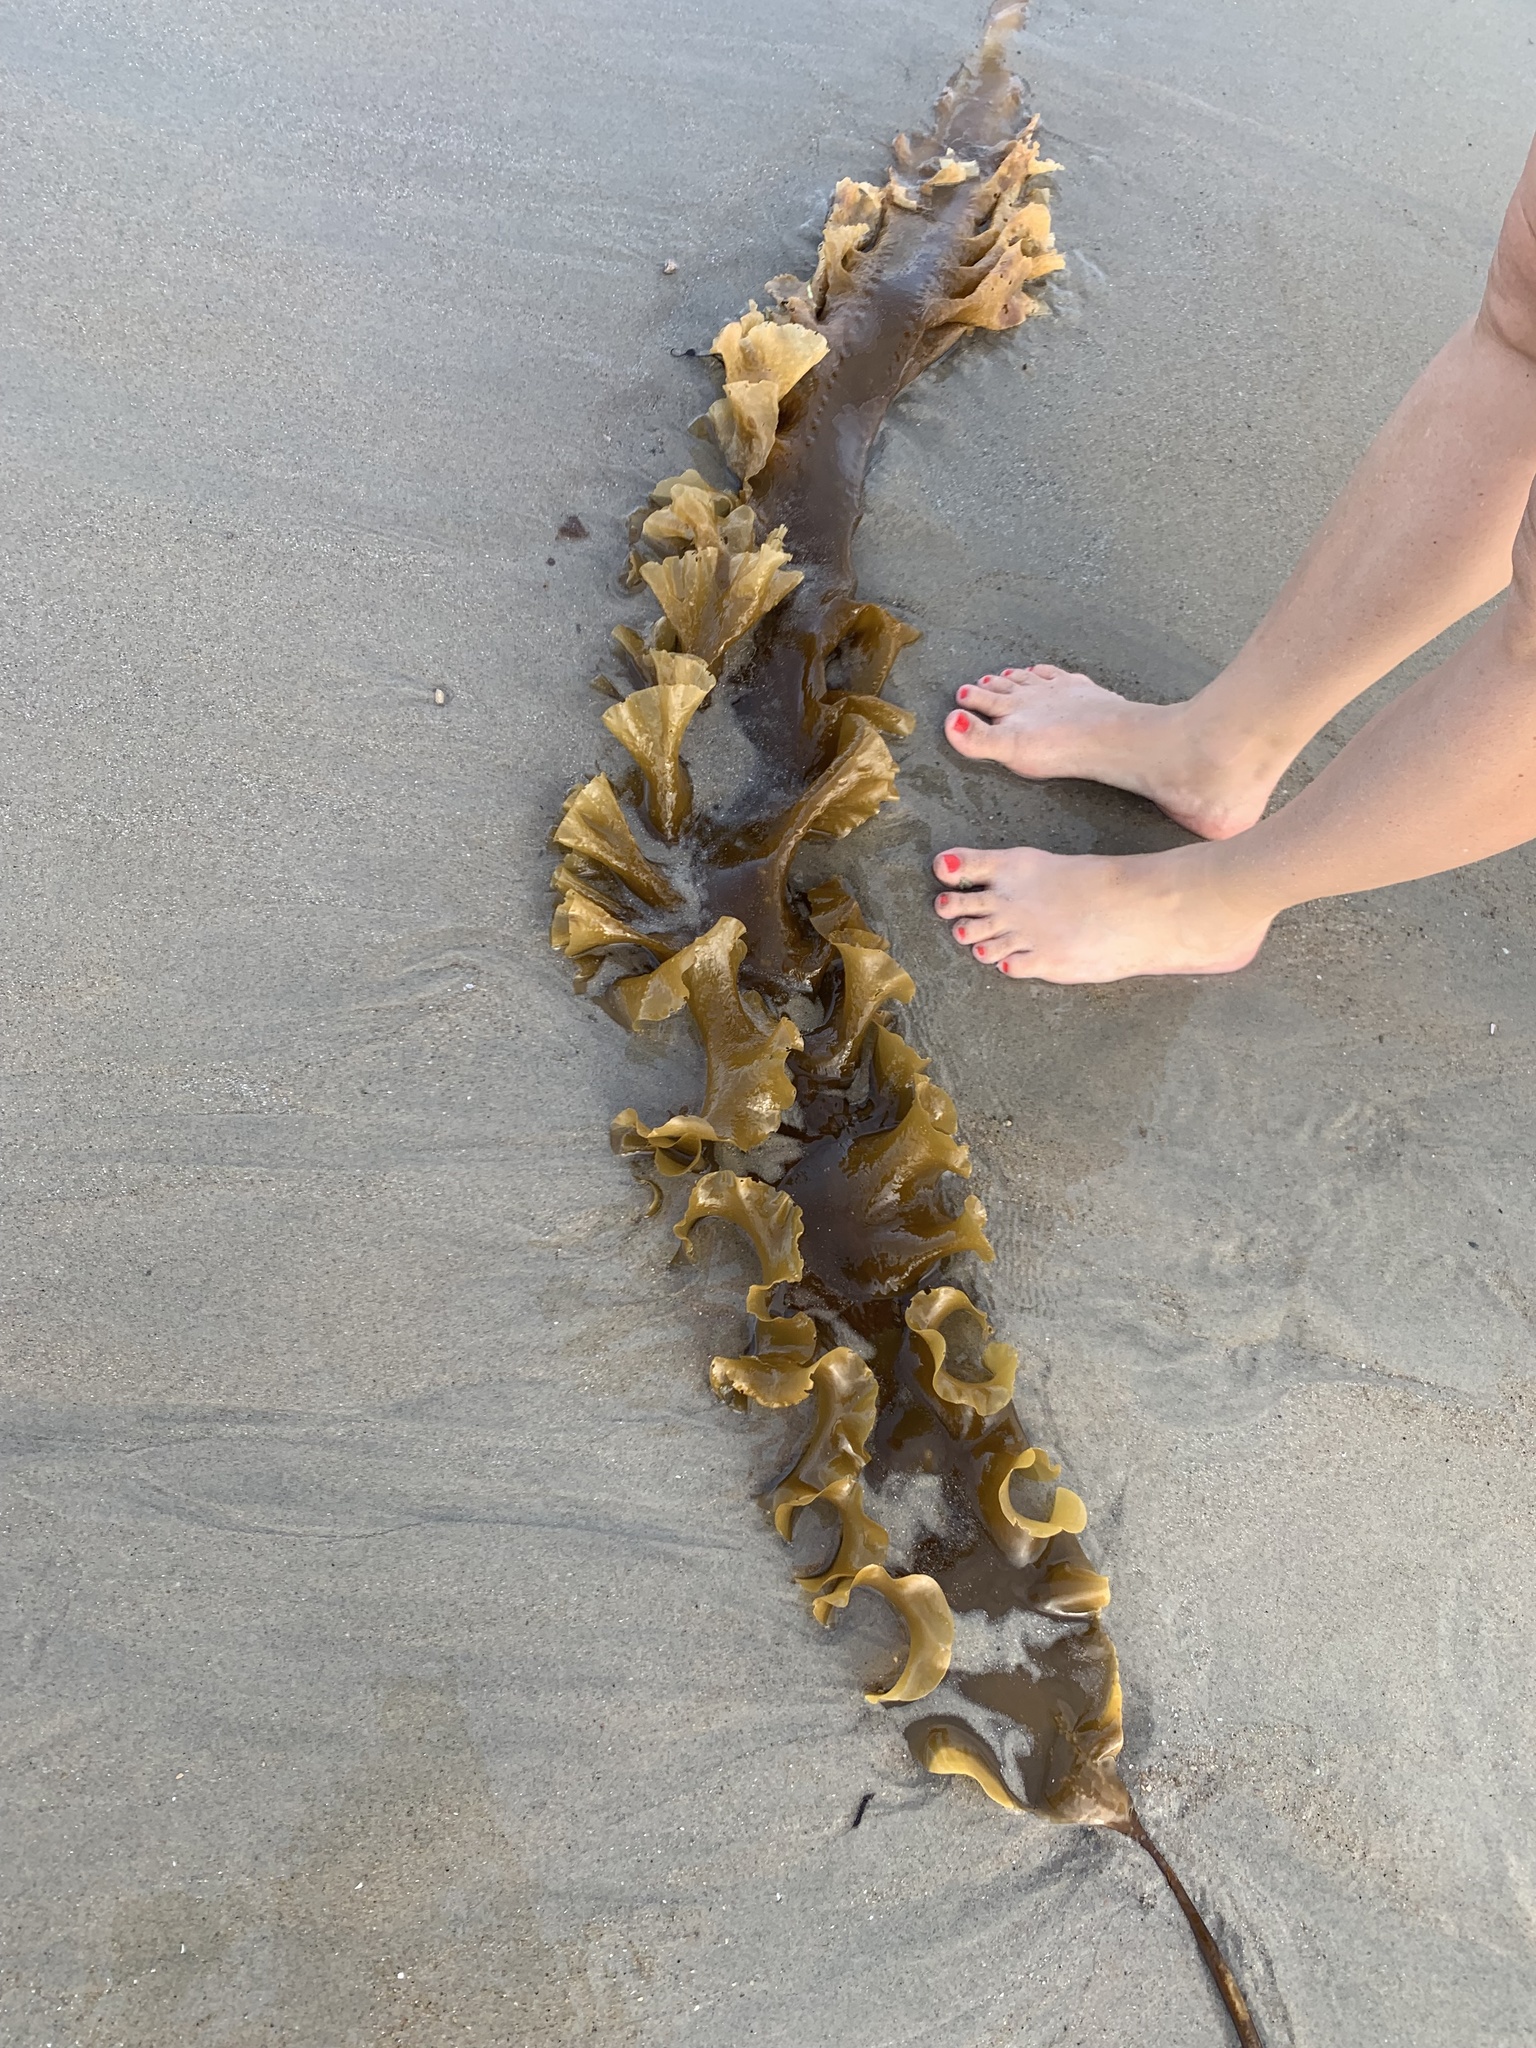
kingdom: Chromista
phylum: Ochrophyta
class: Phaeophyceae
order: Laminariales
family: Laminariaceae
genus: Saccharina
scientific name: Saccharina latissima
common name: Poor man's weather glass
